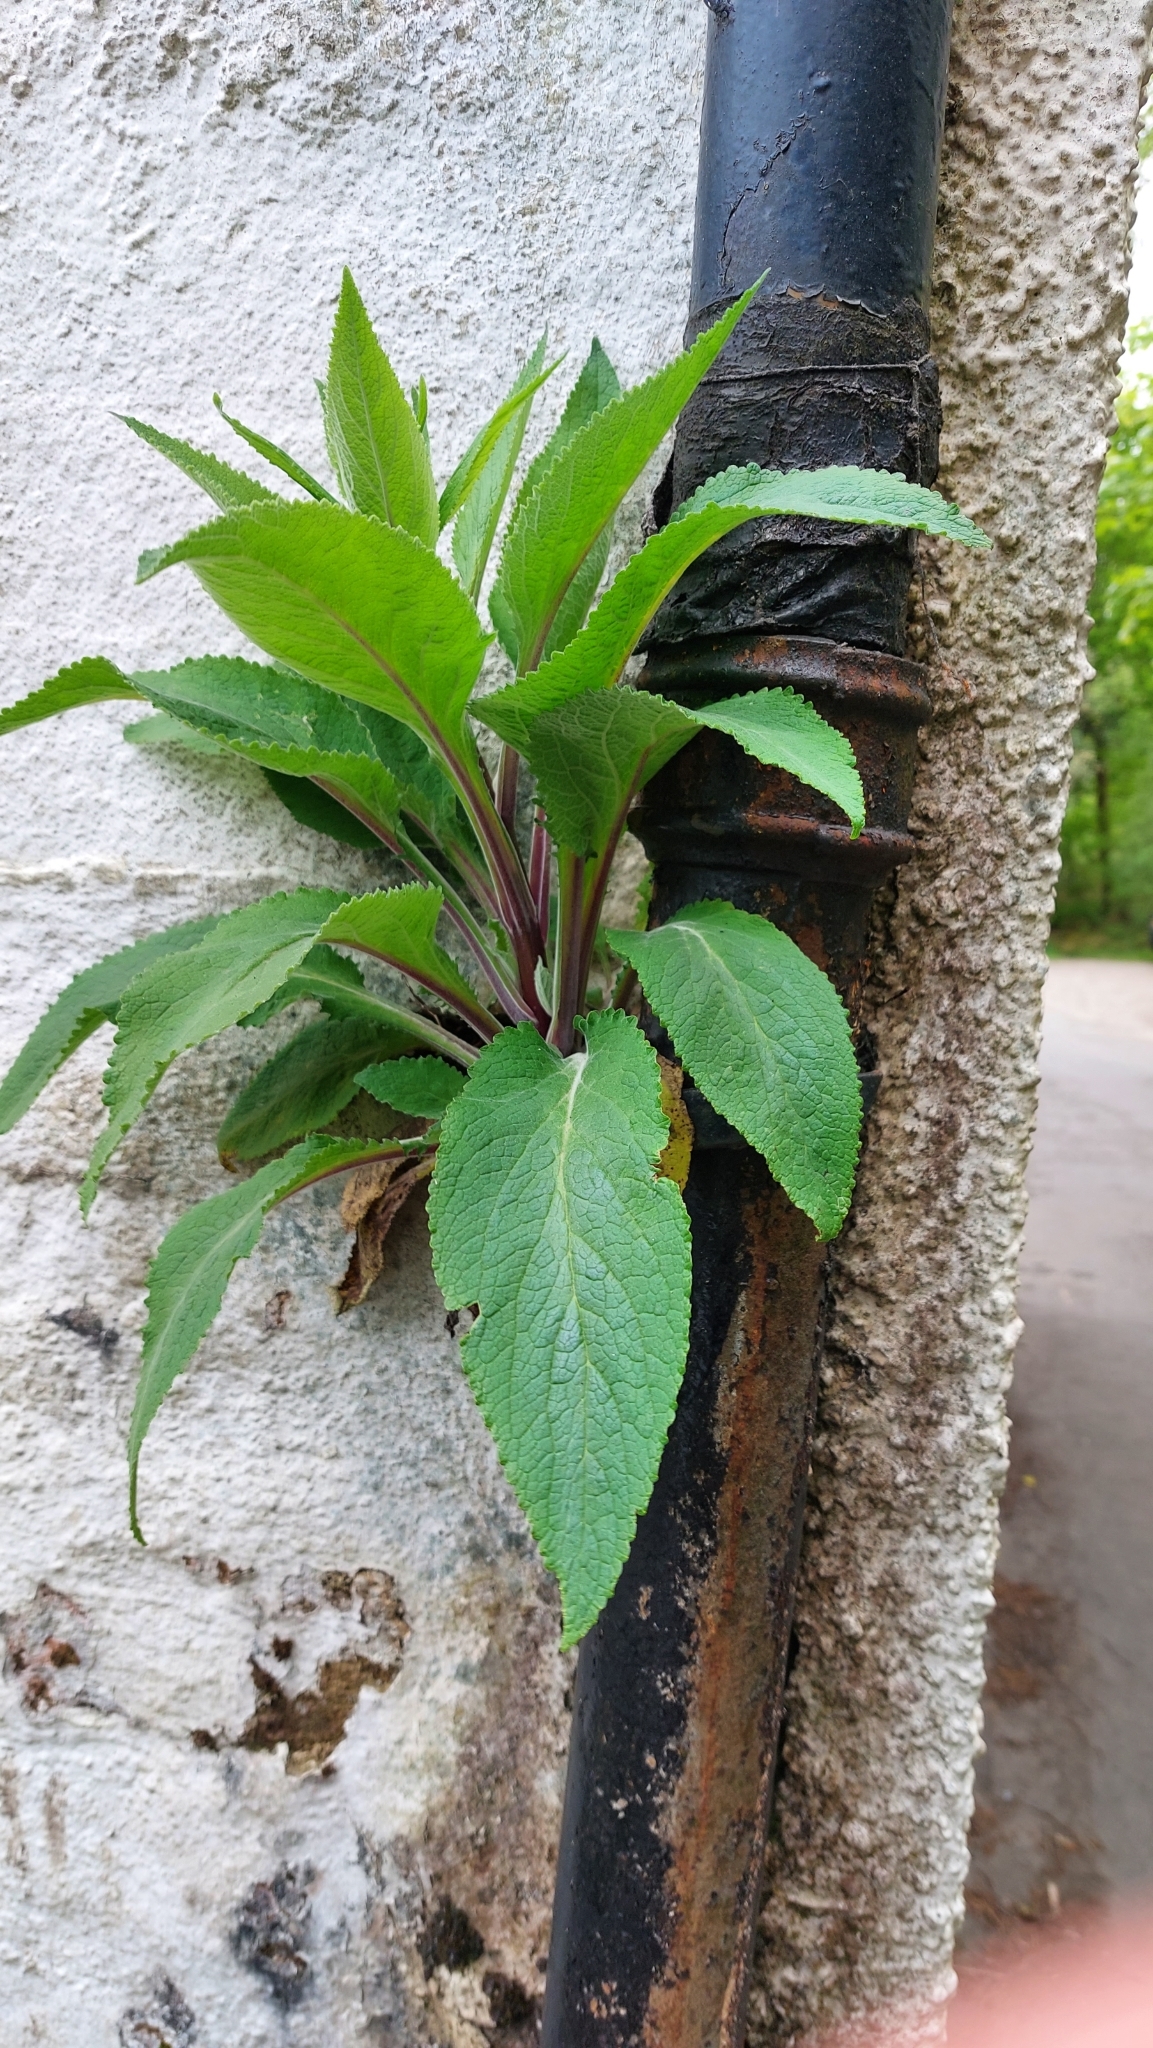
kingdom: Plantae
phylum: Tracheophyta
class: Magnoliopsida
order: Lamiales
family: Plantaginaceae
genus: Digitalis
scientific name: Digitalis purpurea
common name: Foxglove
